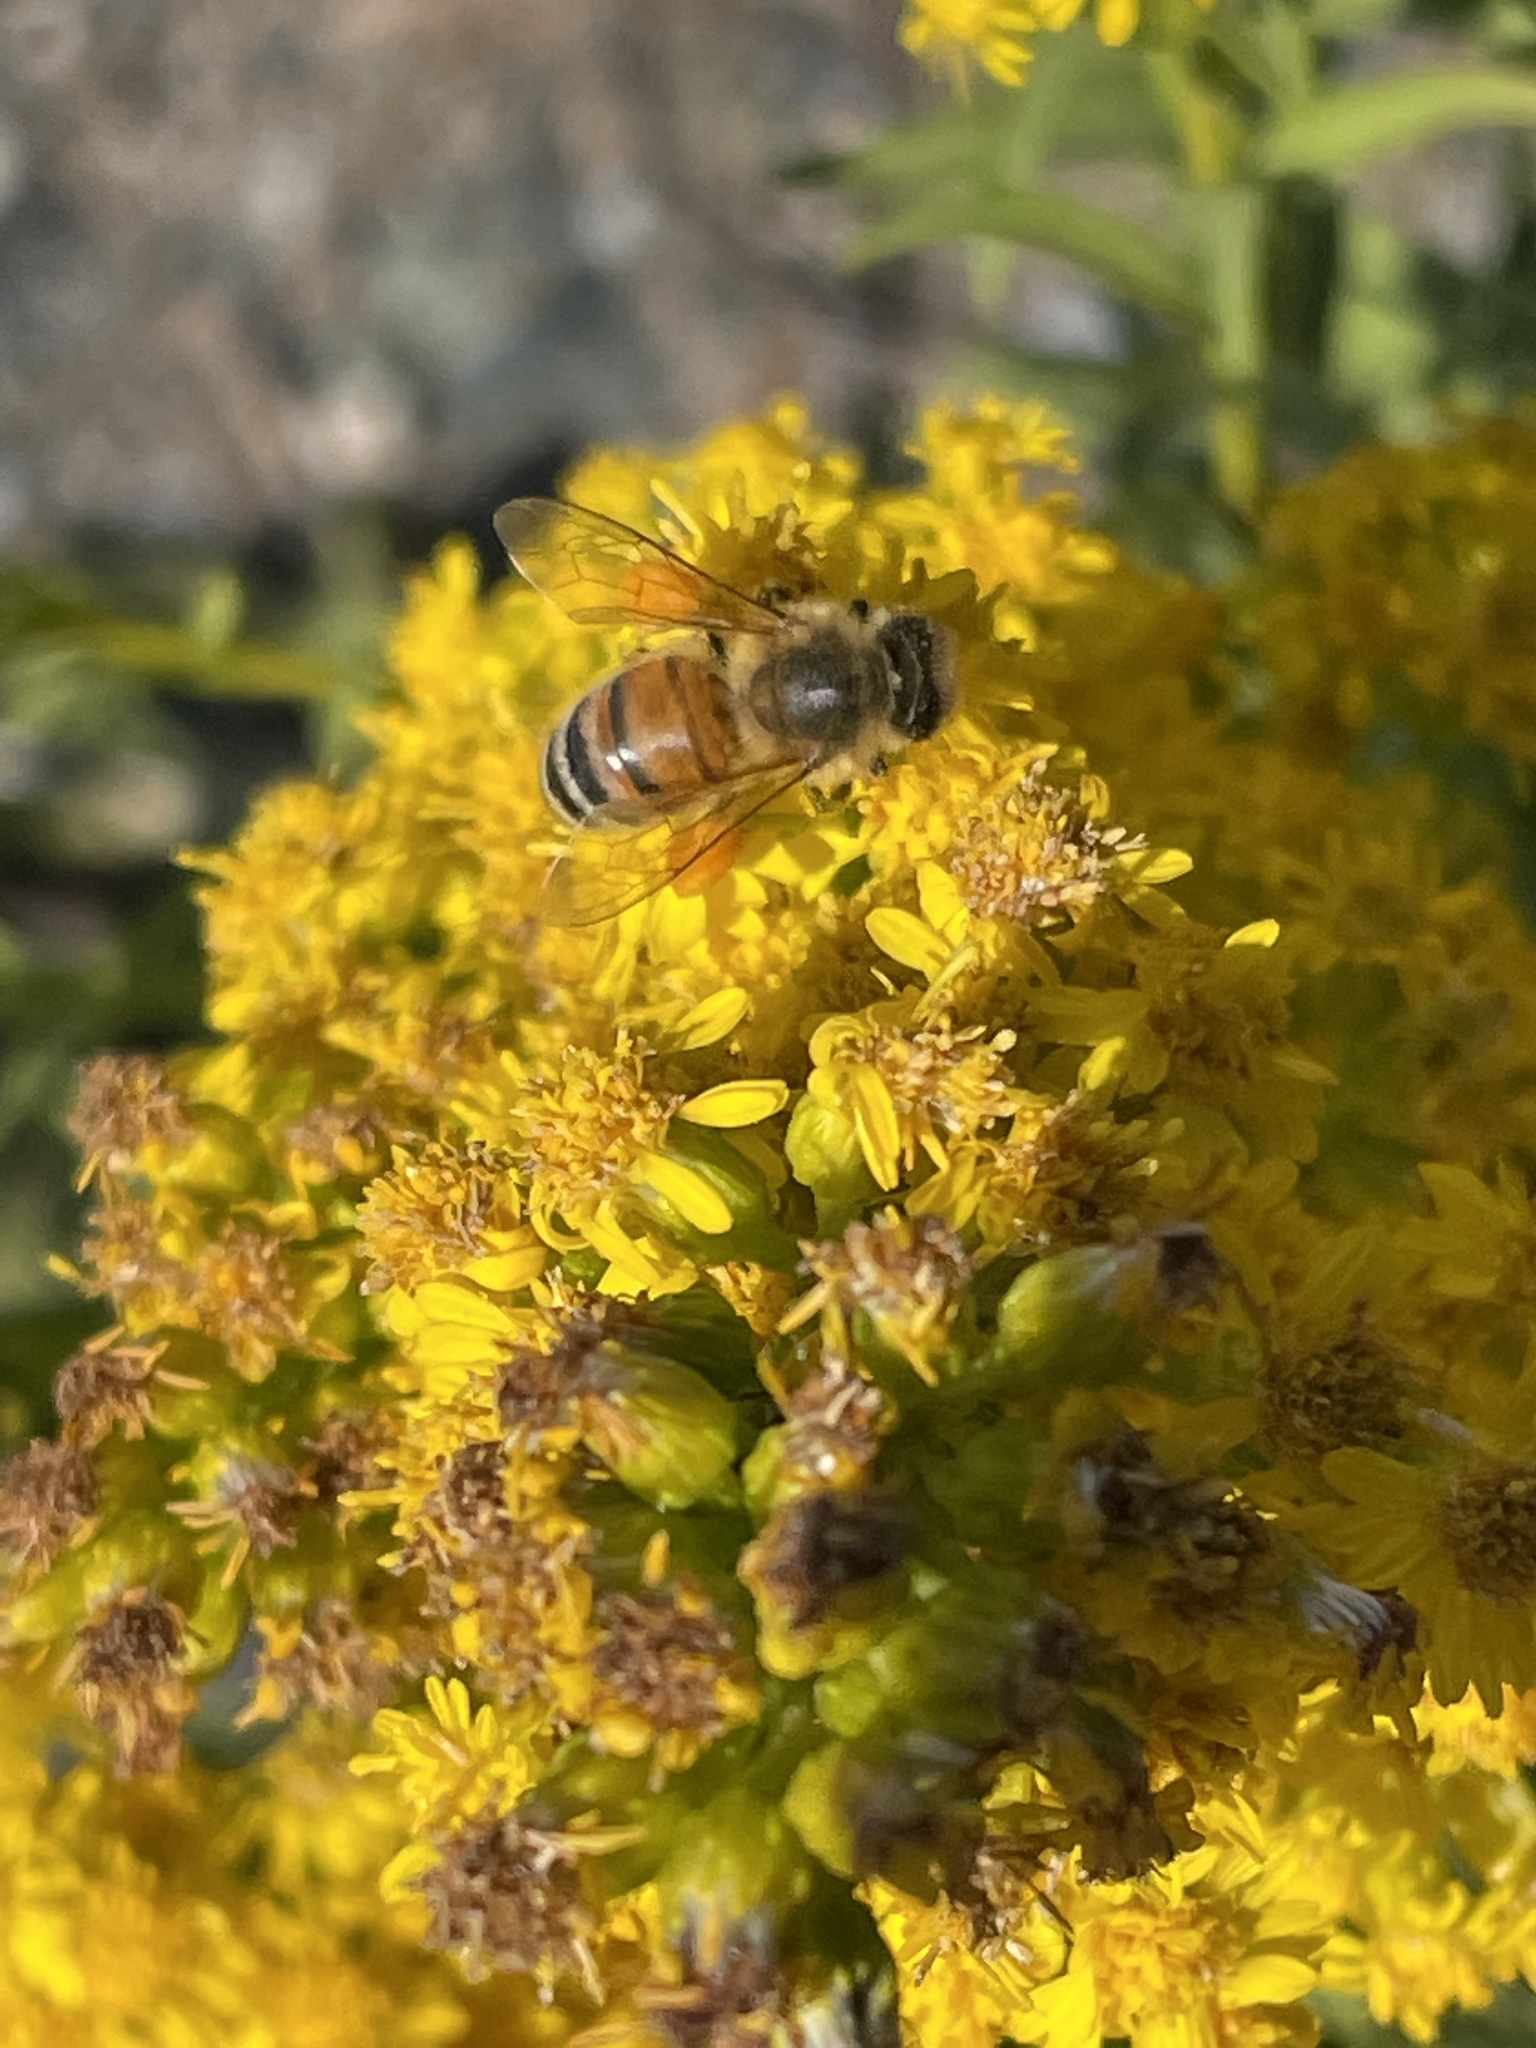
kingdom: Animalia
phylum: Arthropoda
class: Insecta
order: Hymenoptera
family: Apidae
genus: Apis
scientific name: Apis mellifera
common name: Honey bee
